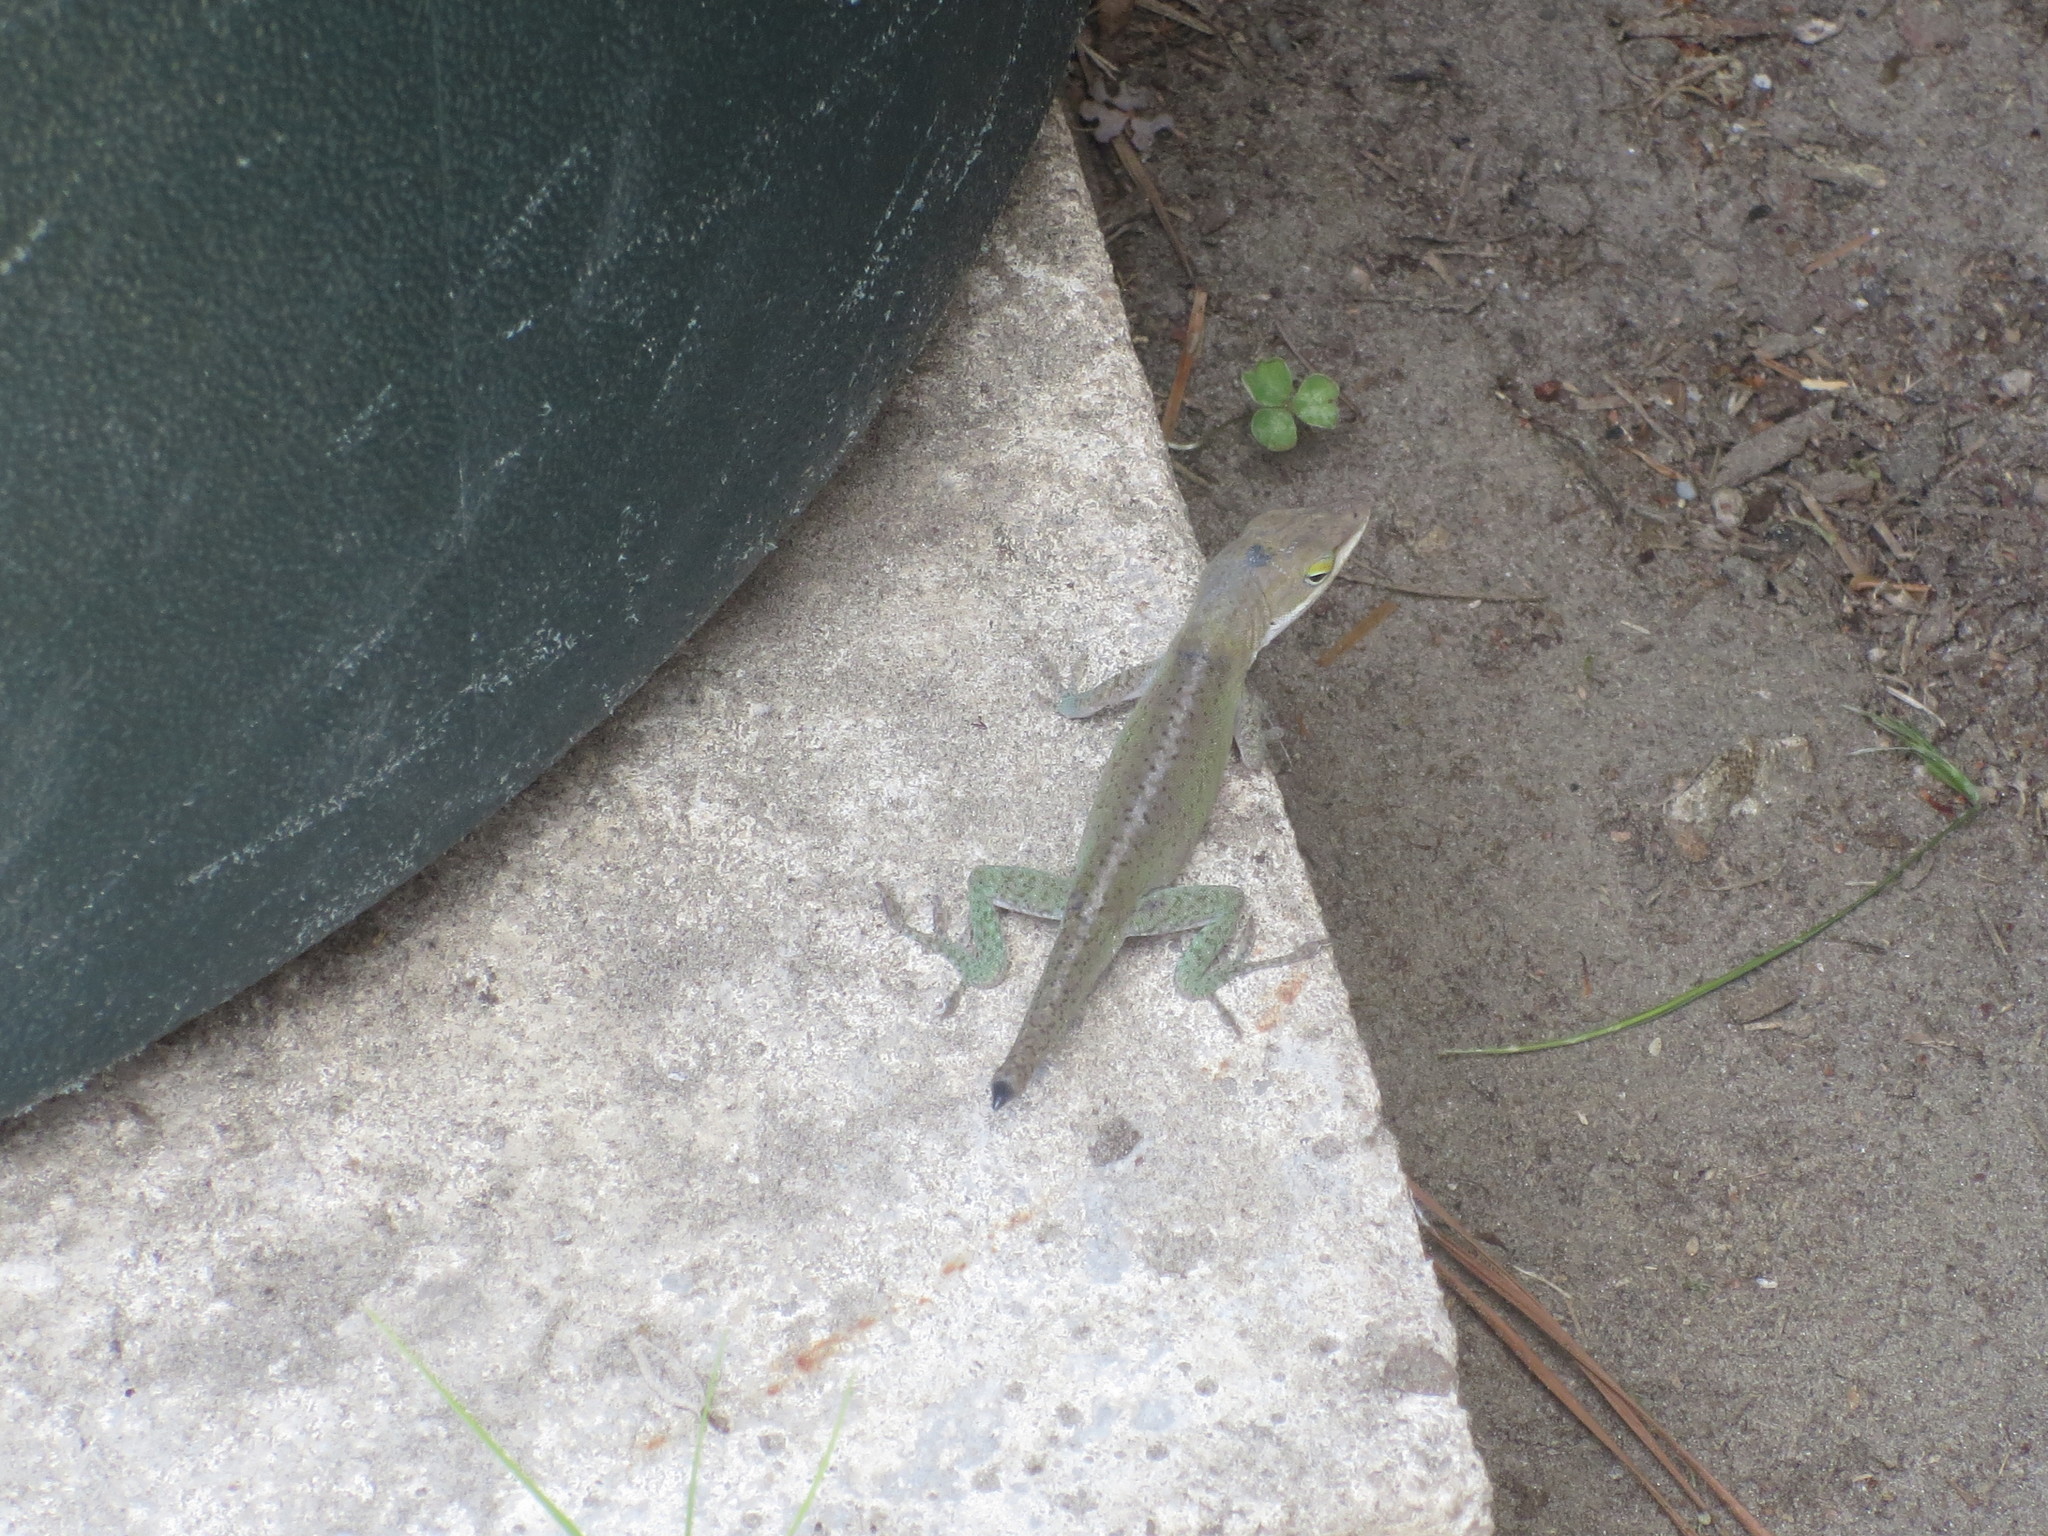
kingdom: Animalia
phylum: Chordata
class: Squamata
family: Dactyloidae
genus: Anolis
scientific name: Anolis carolinensis
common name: Green anole
